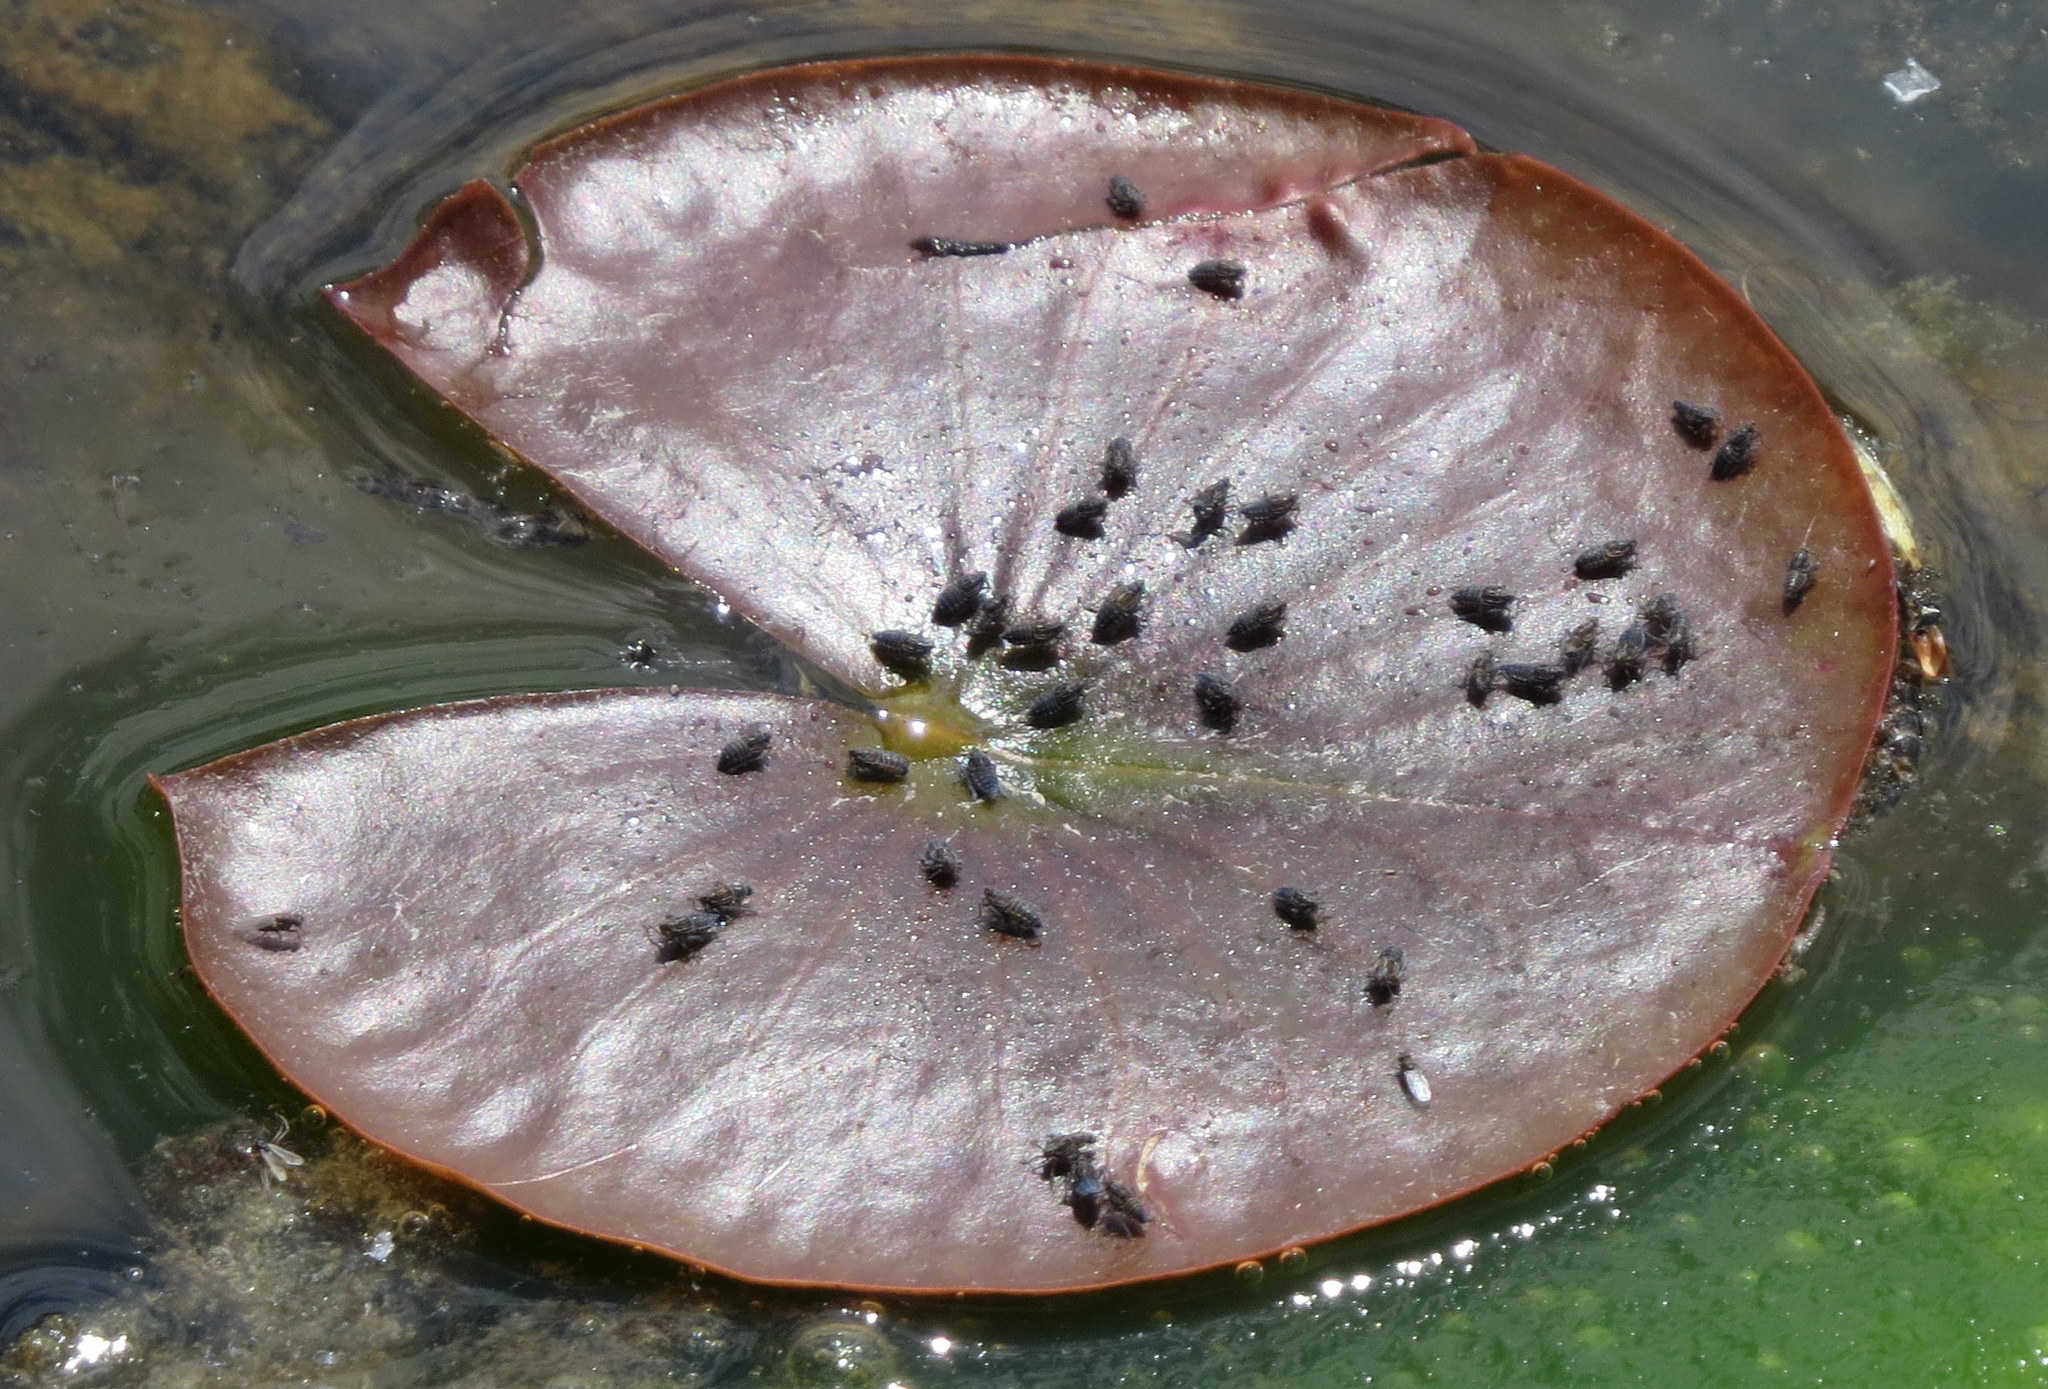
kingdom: Plantae
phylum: Tracheophyta
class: Magnoliopsida
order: Nymphaeales
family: Nymphaeaceae
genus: Nymphaea
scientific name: Nymphaea odorata
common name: Fragrant water-lily
